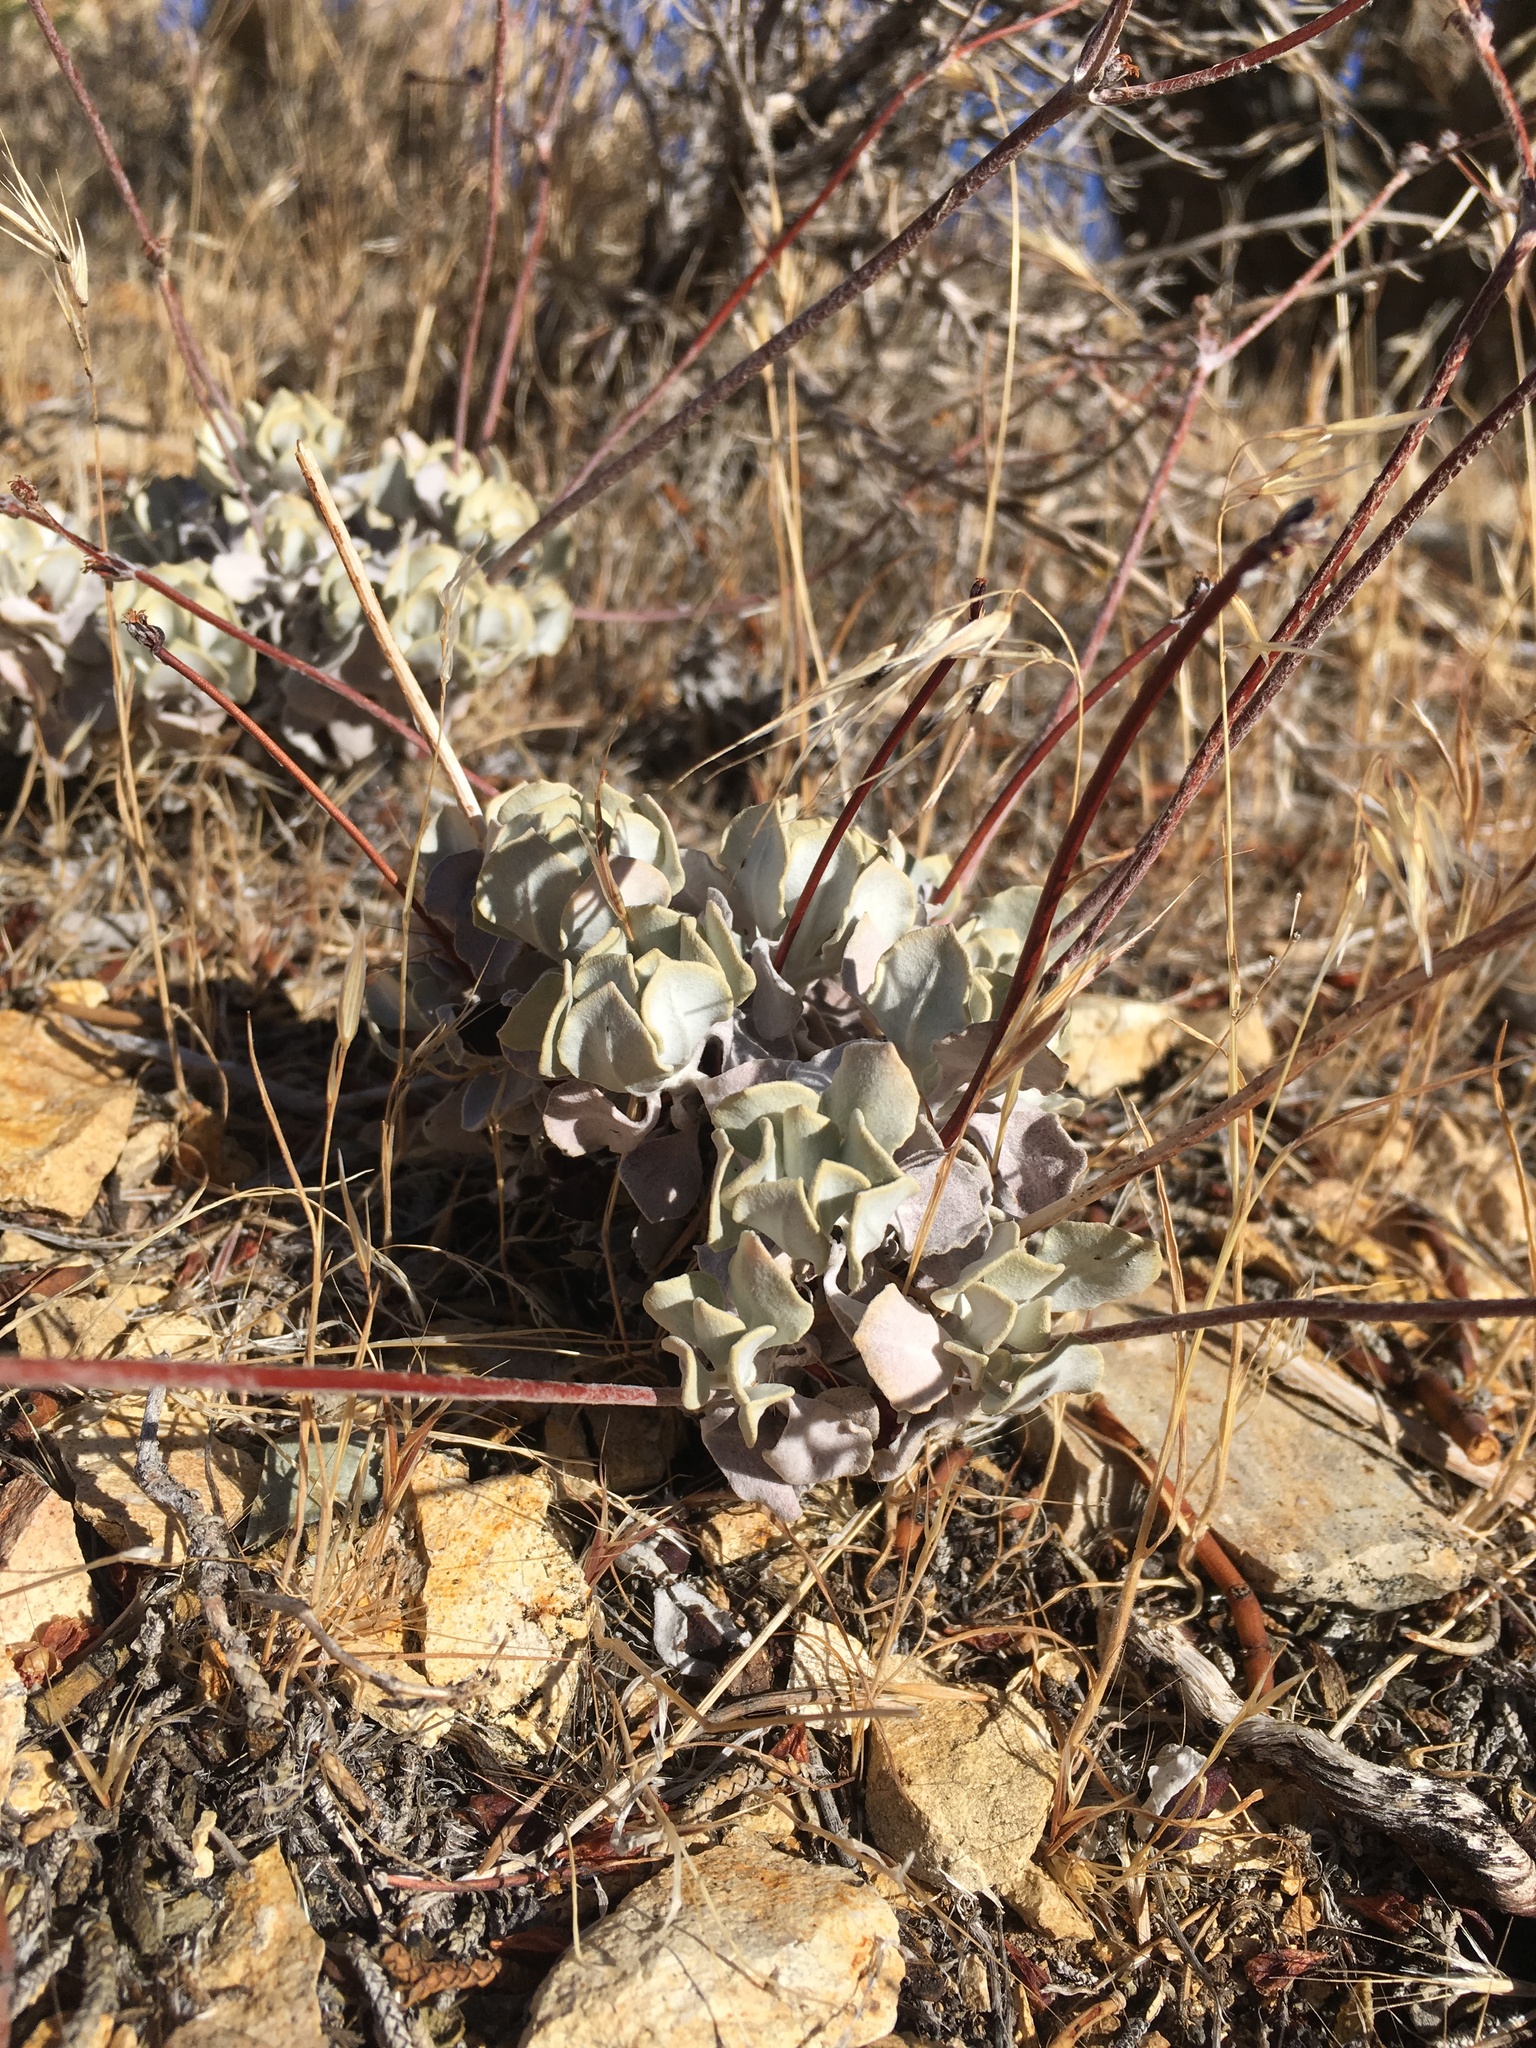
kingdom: Plantae
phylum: Tracheophyta
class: Magnoliopsida
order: Caryophyllales
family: Polygonaceae
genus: Eriogonum
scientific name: Eriogonum saxatile
